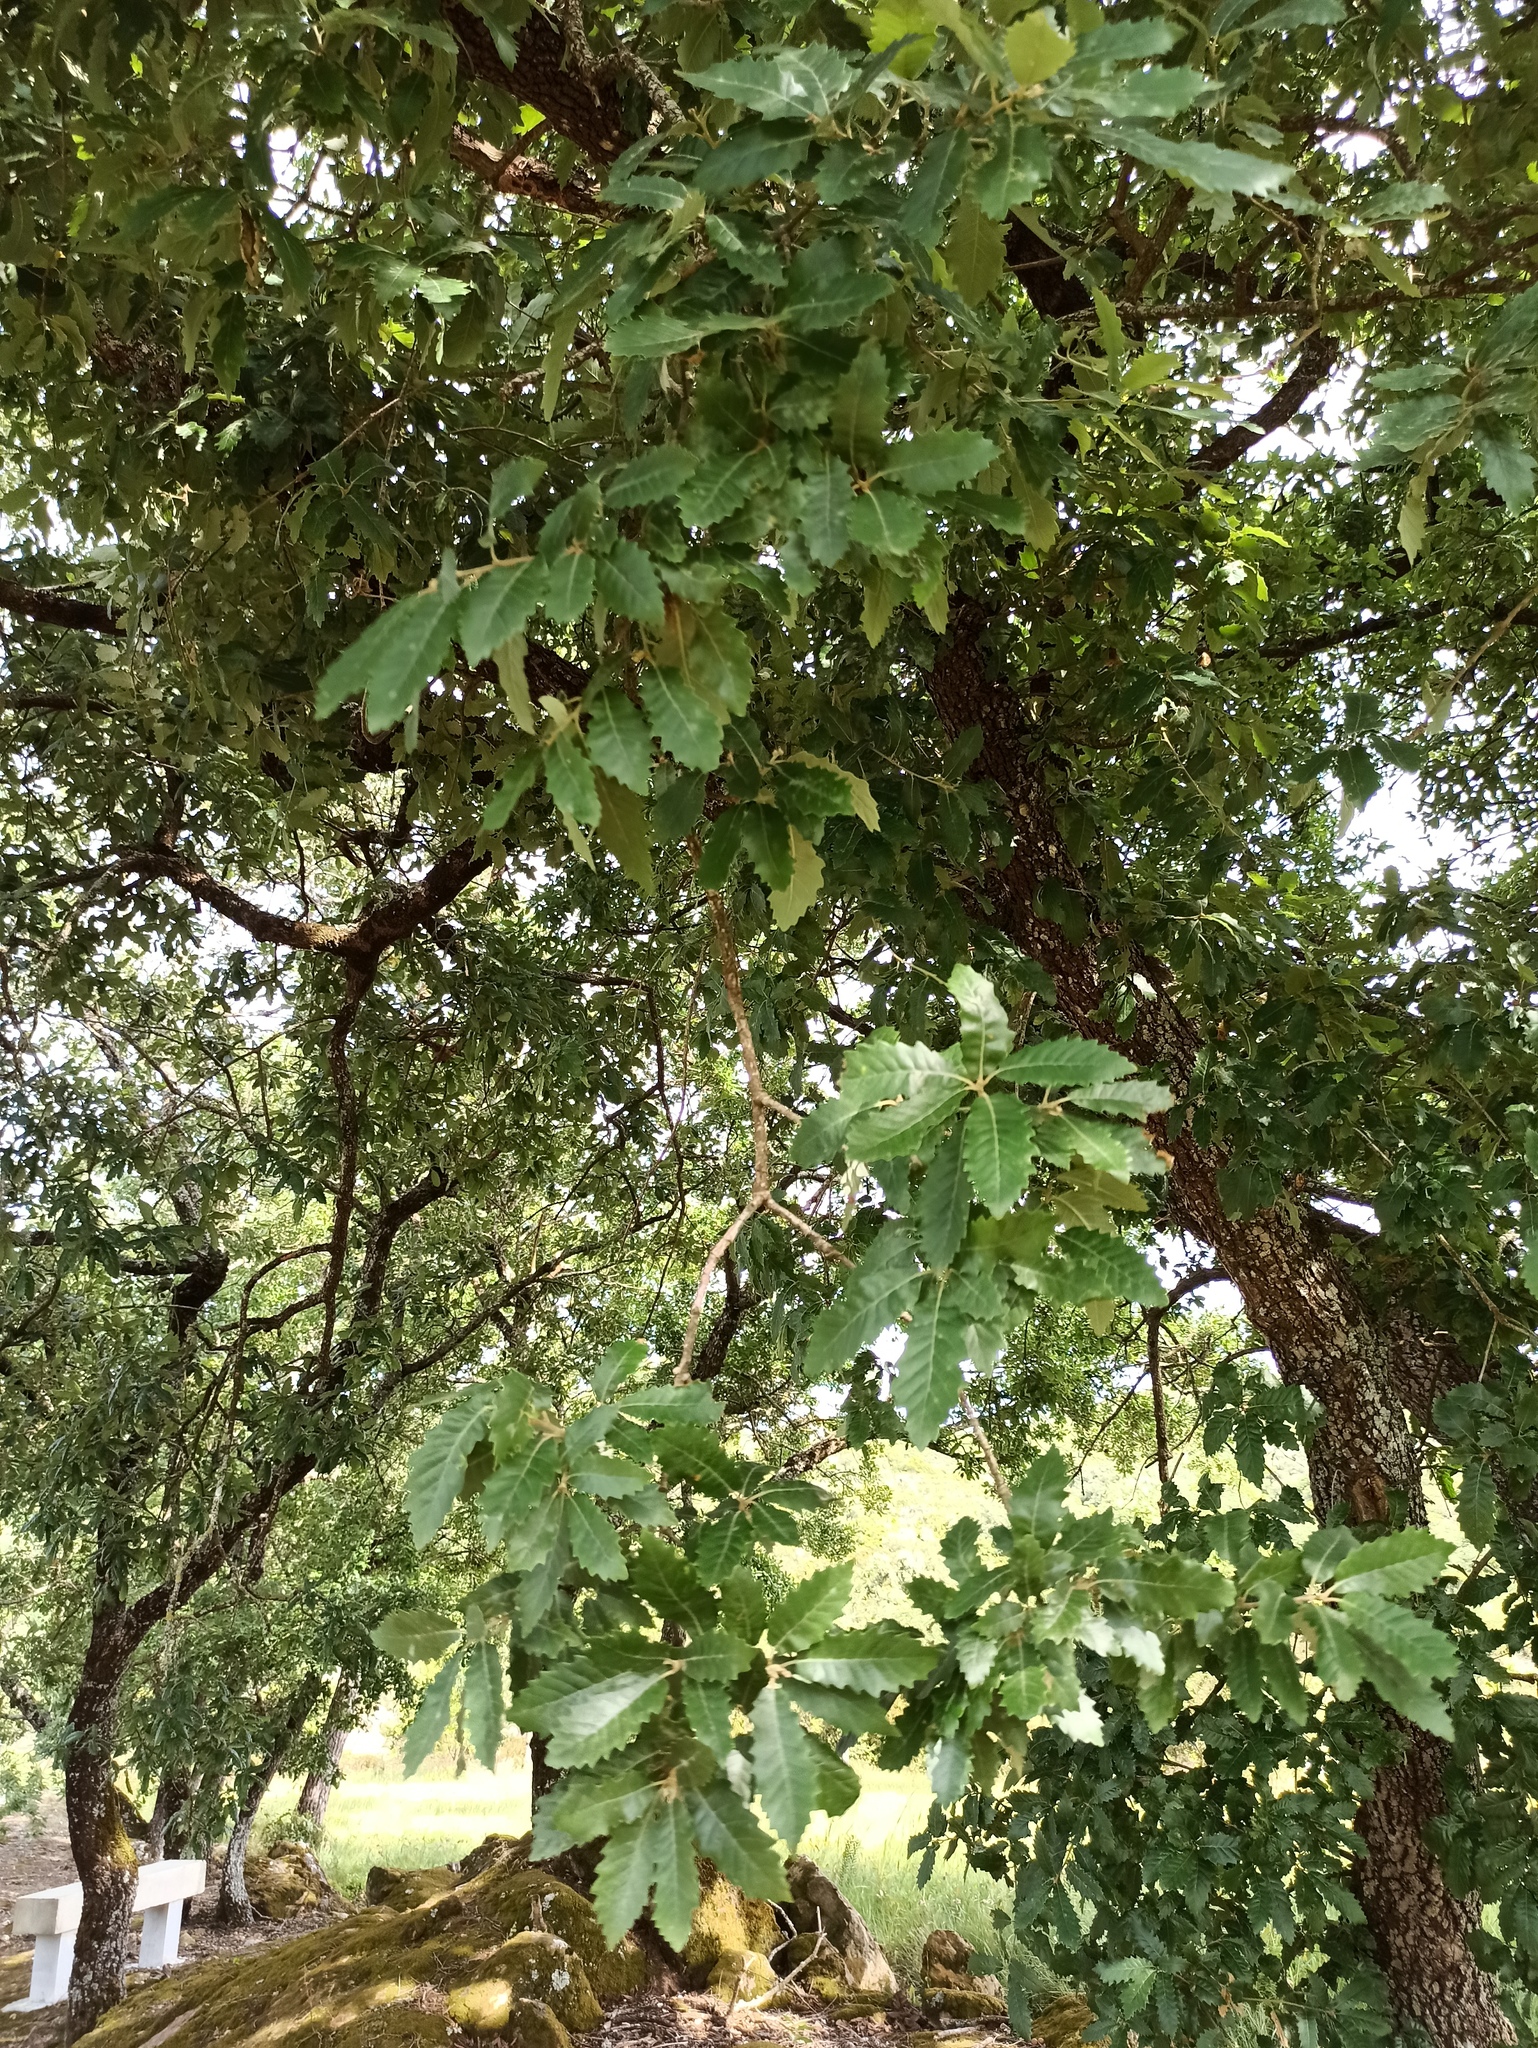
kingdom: Plantae
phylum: Tracheophyta
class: Magnoliopsida
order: Fagales
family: Fagaceae
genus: Quercus
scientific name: Quercus faginea
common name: Gall oak tree
